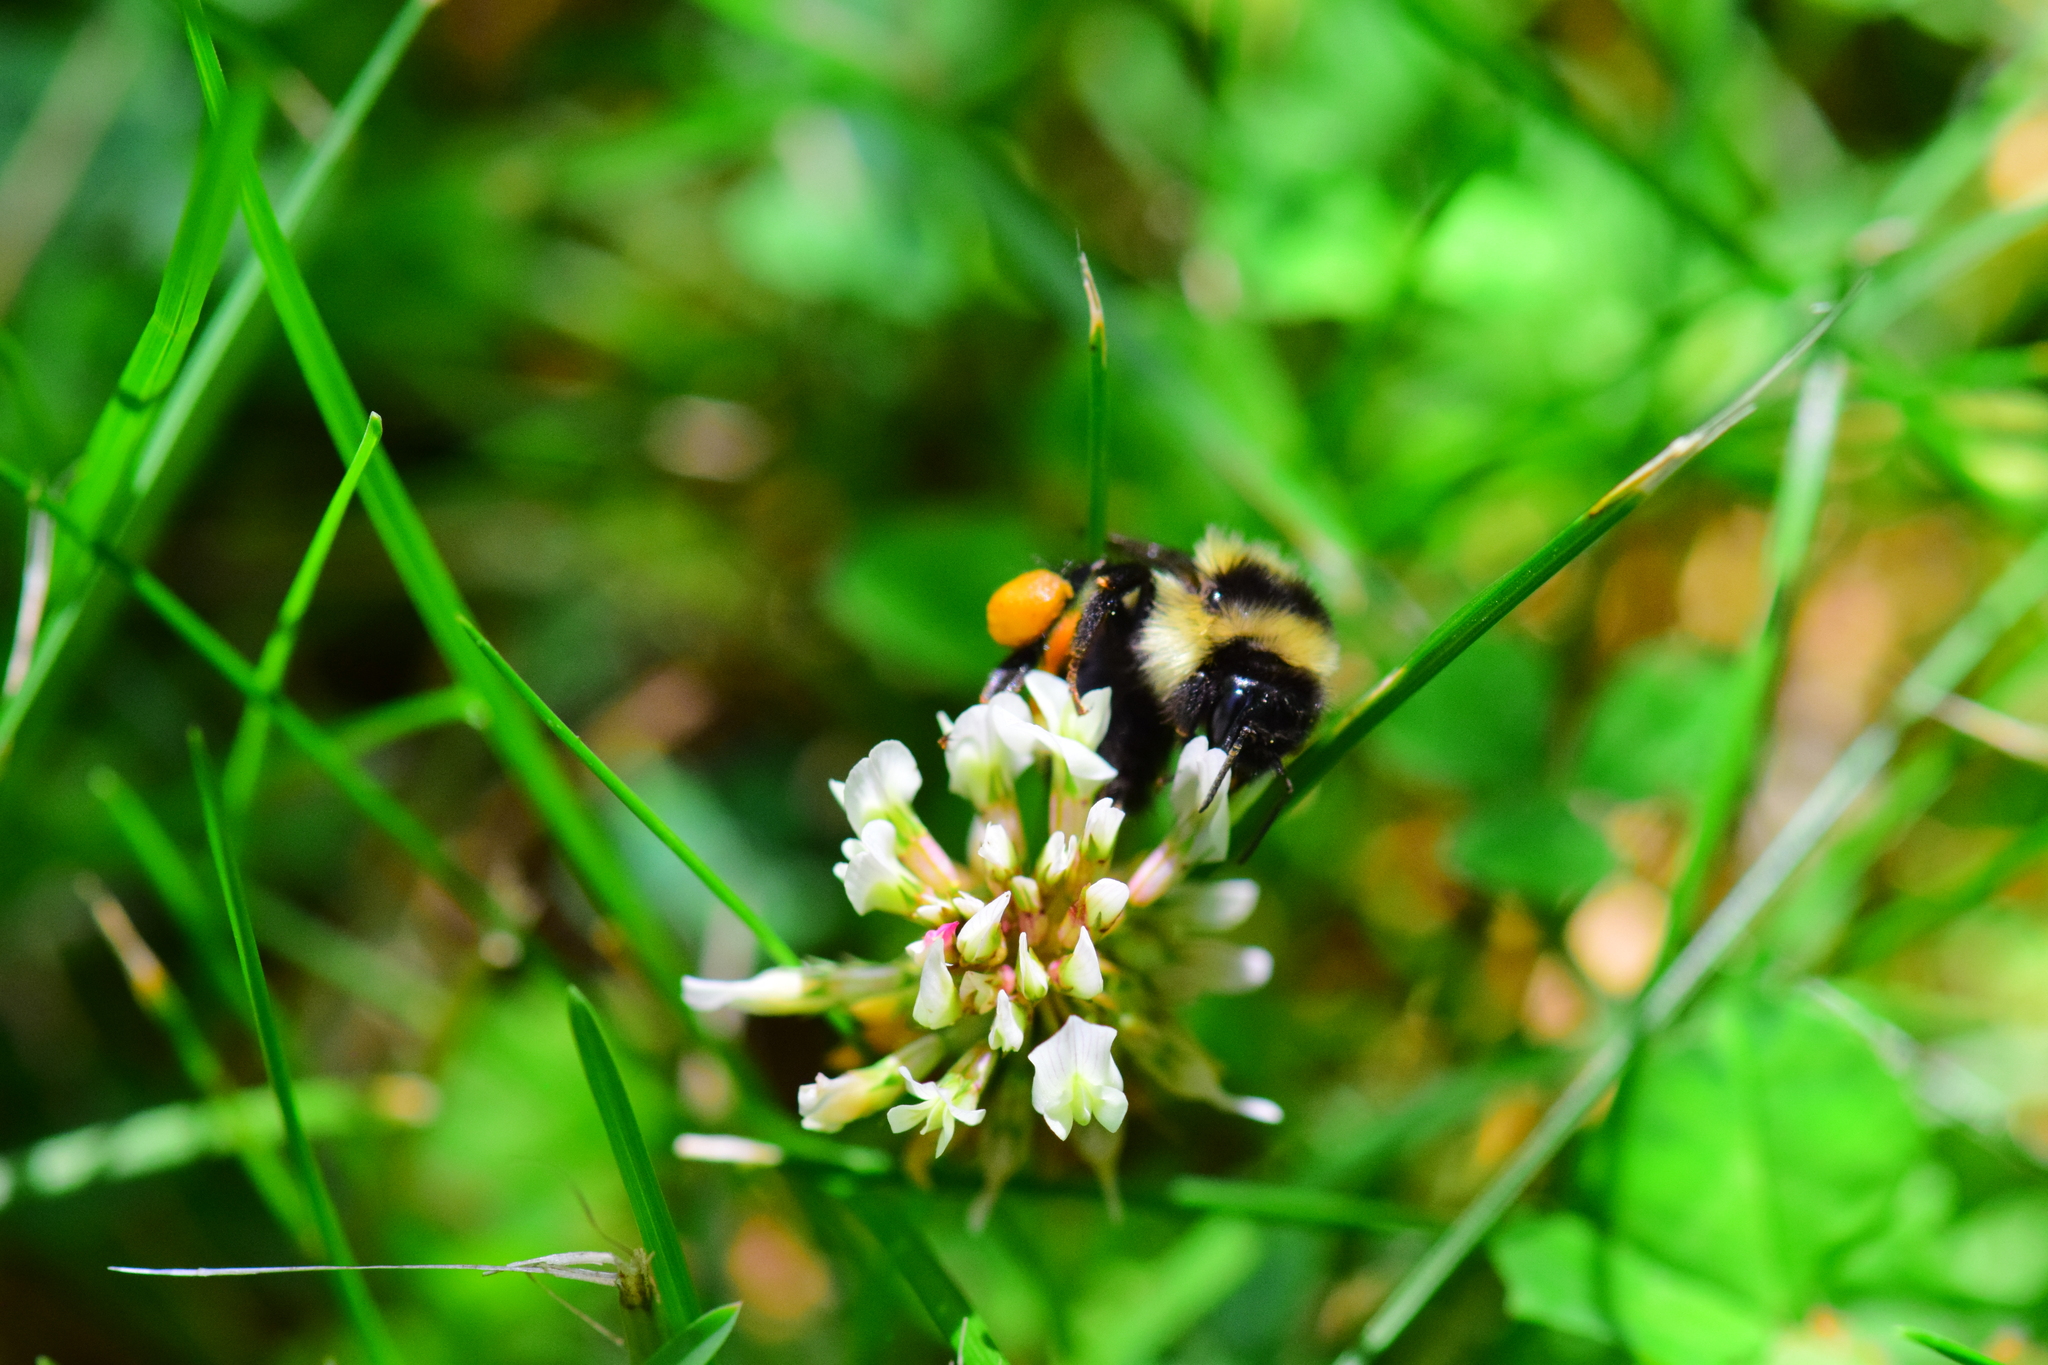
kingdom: Animalia
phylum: Arthropoda
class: Insecta
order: Hymenoptera
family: Apidae
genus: Bombus
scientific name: Bombus ternarius
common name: Tri-colored bumble bee
